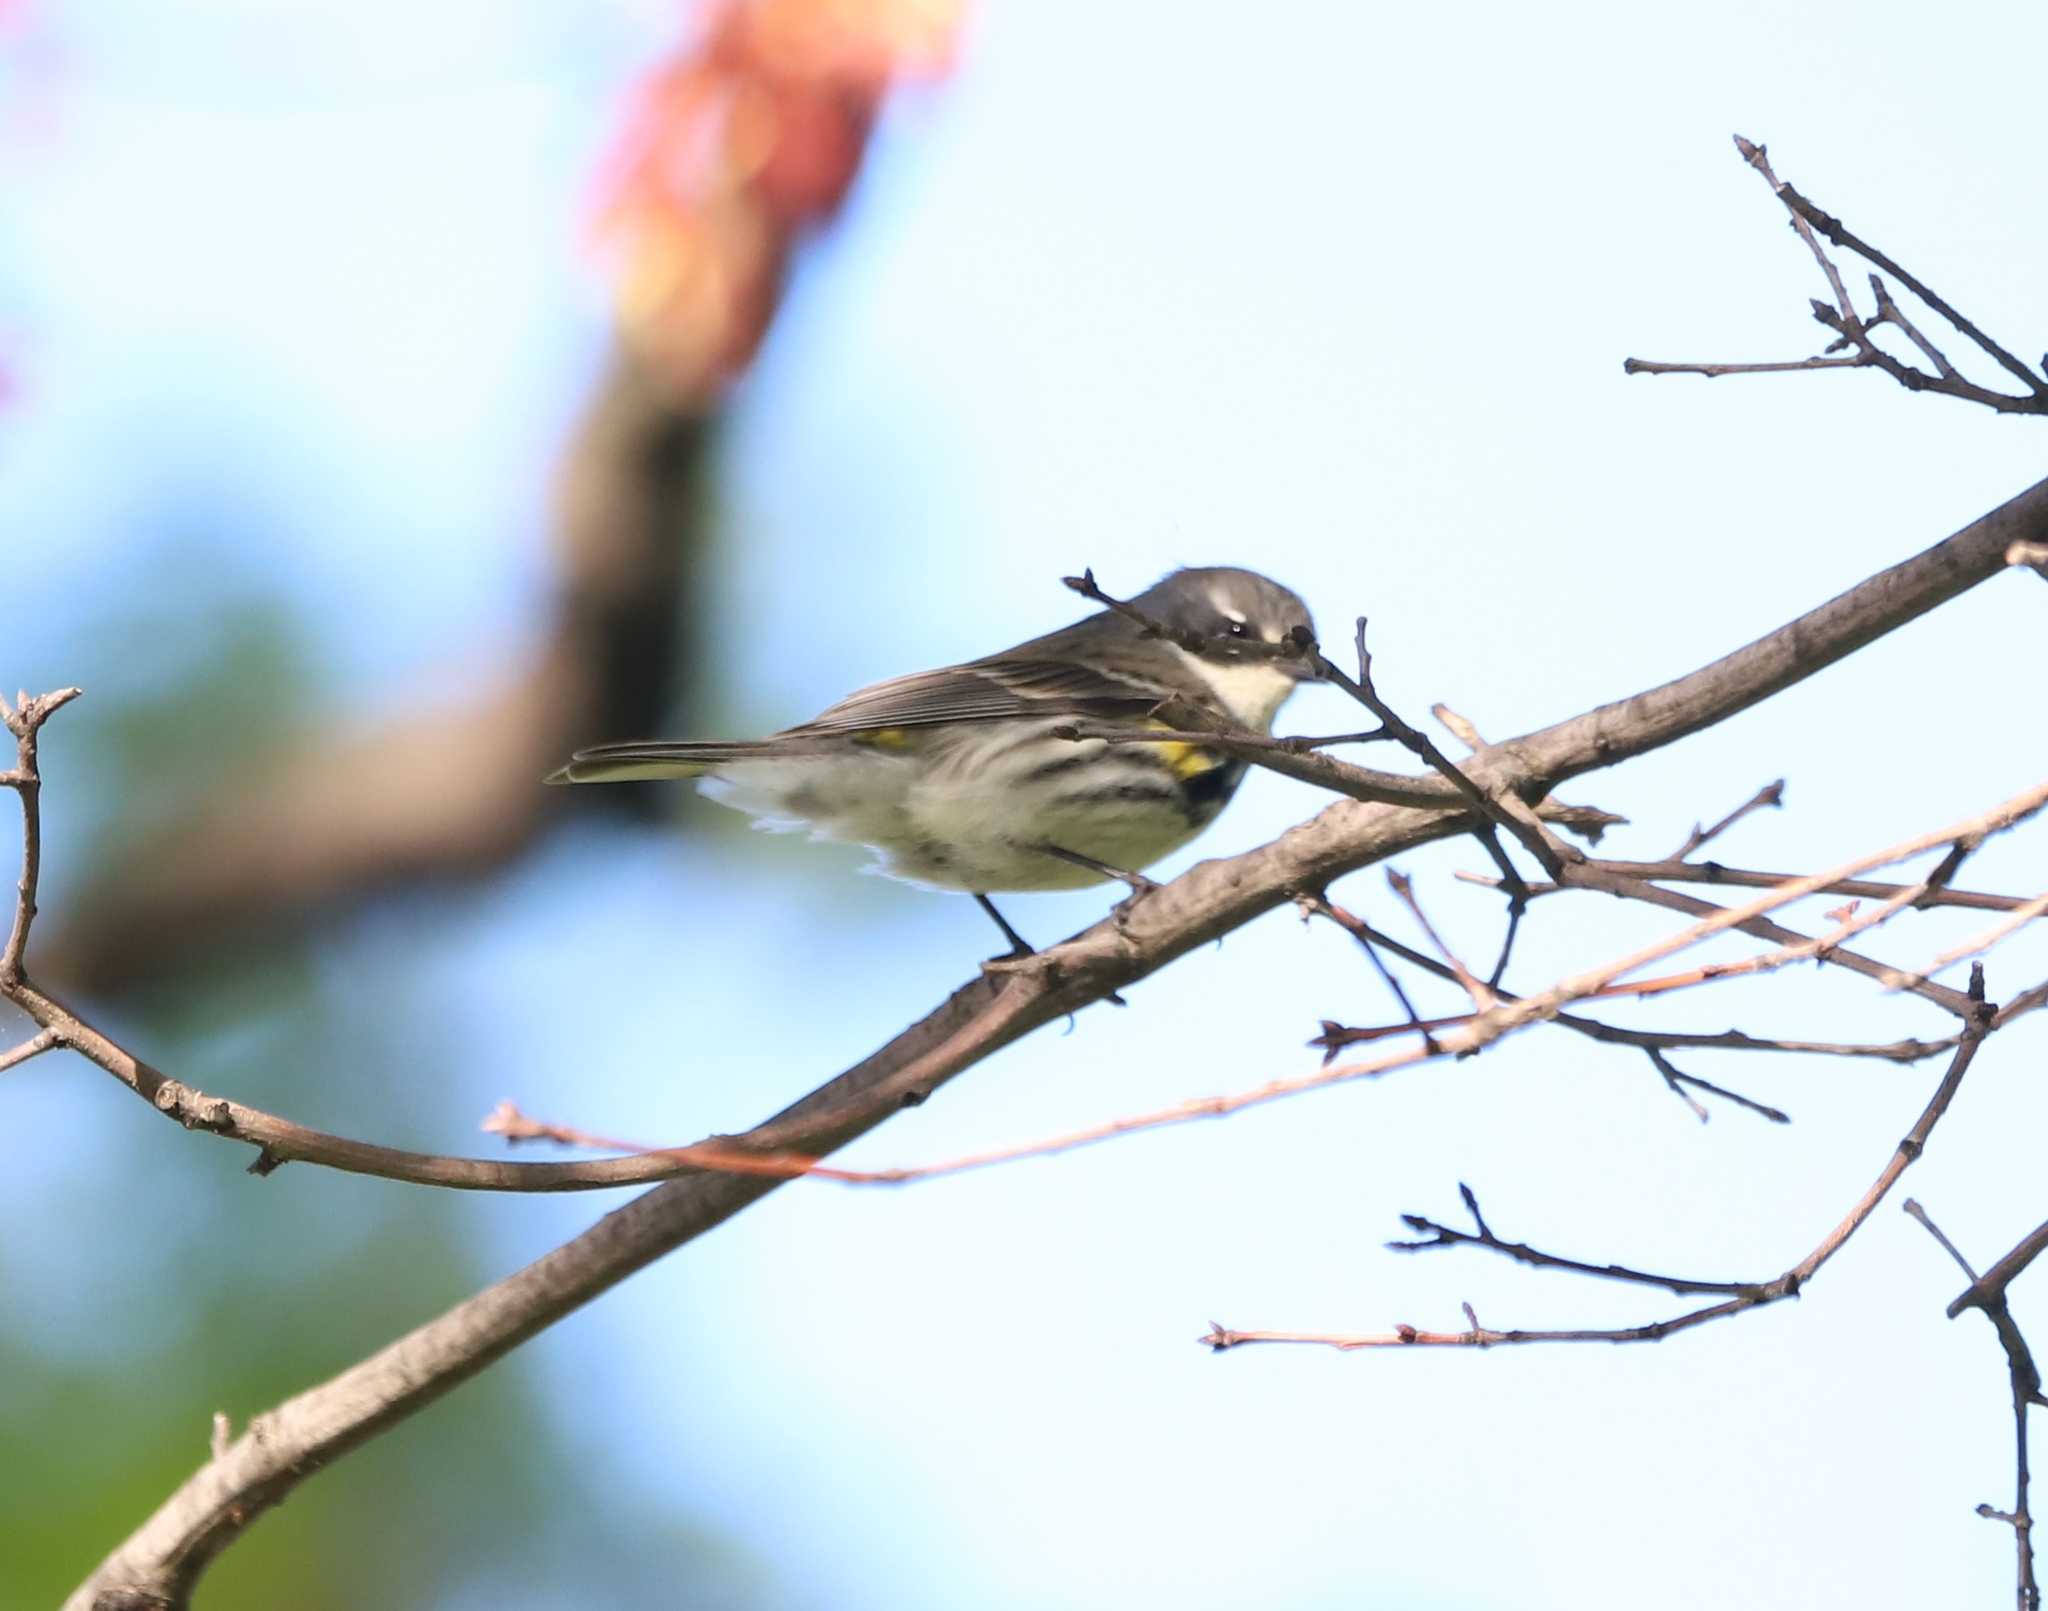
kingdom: Animalia
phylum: Chordata
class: Aves
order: Passeriformes
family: Parulidae
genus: Setophaga
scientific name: Setophaga coronata
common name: Myrtle warbler
